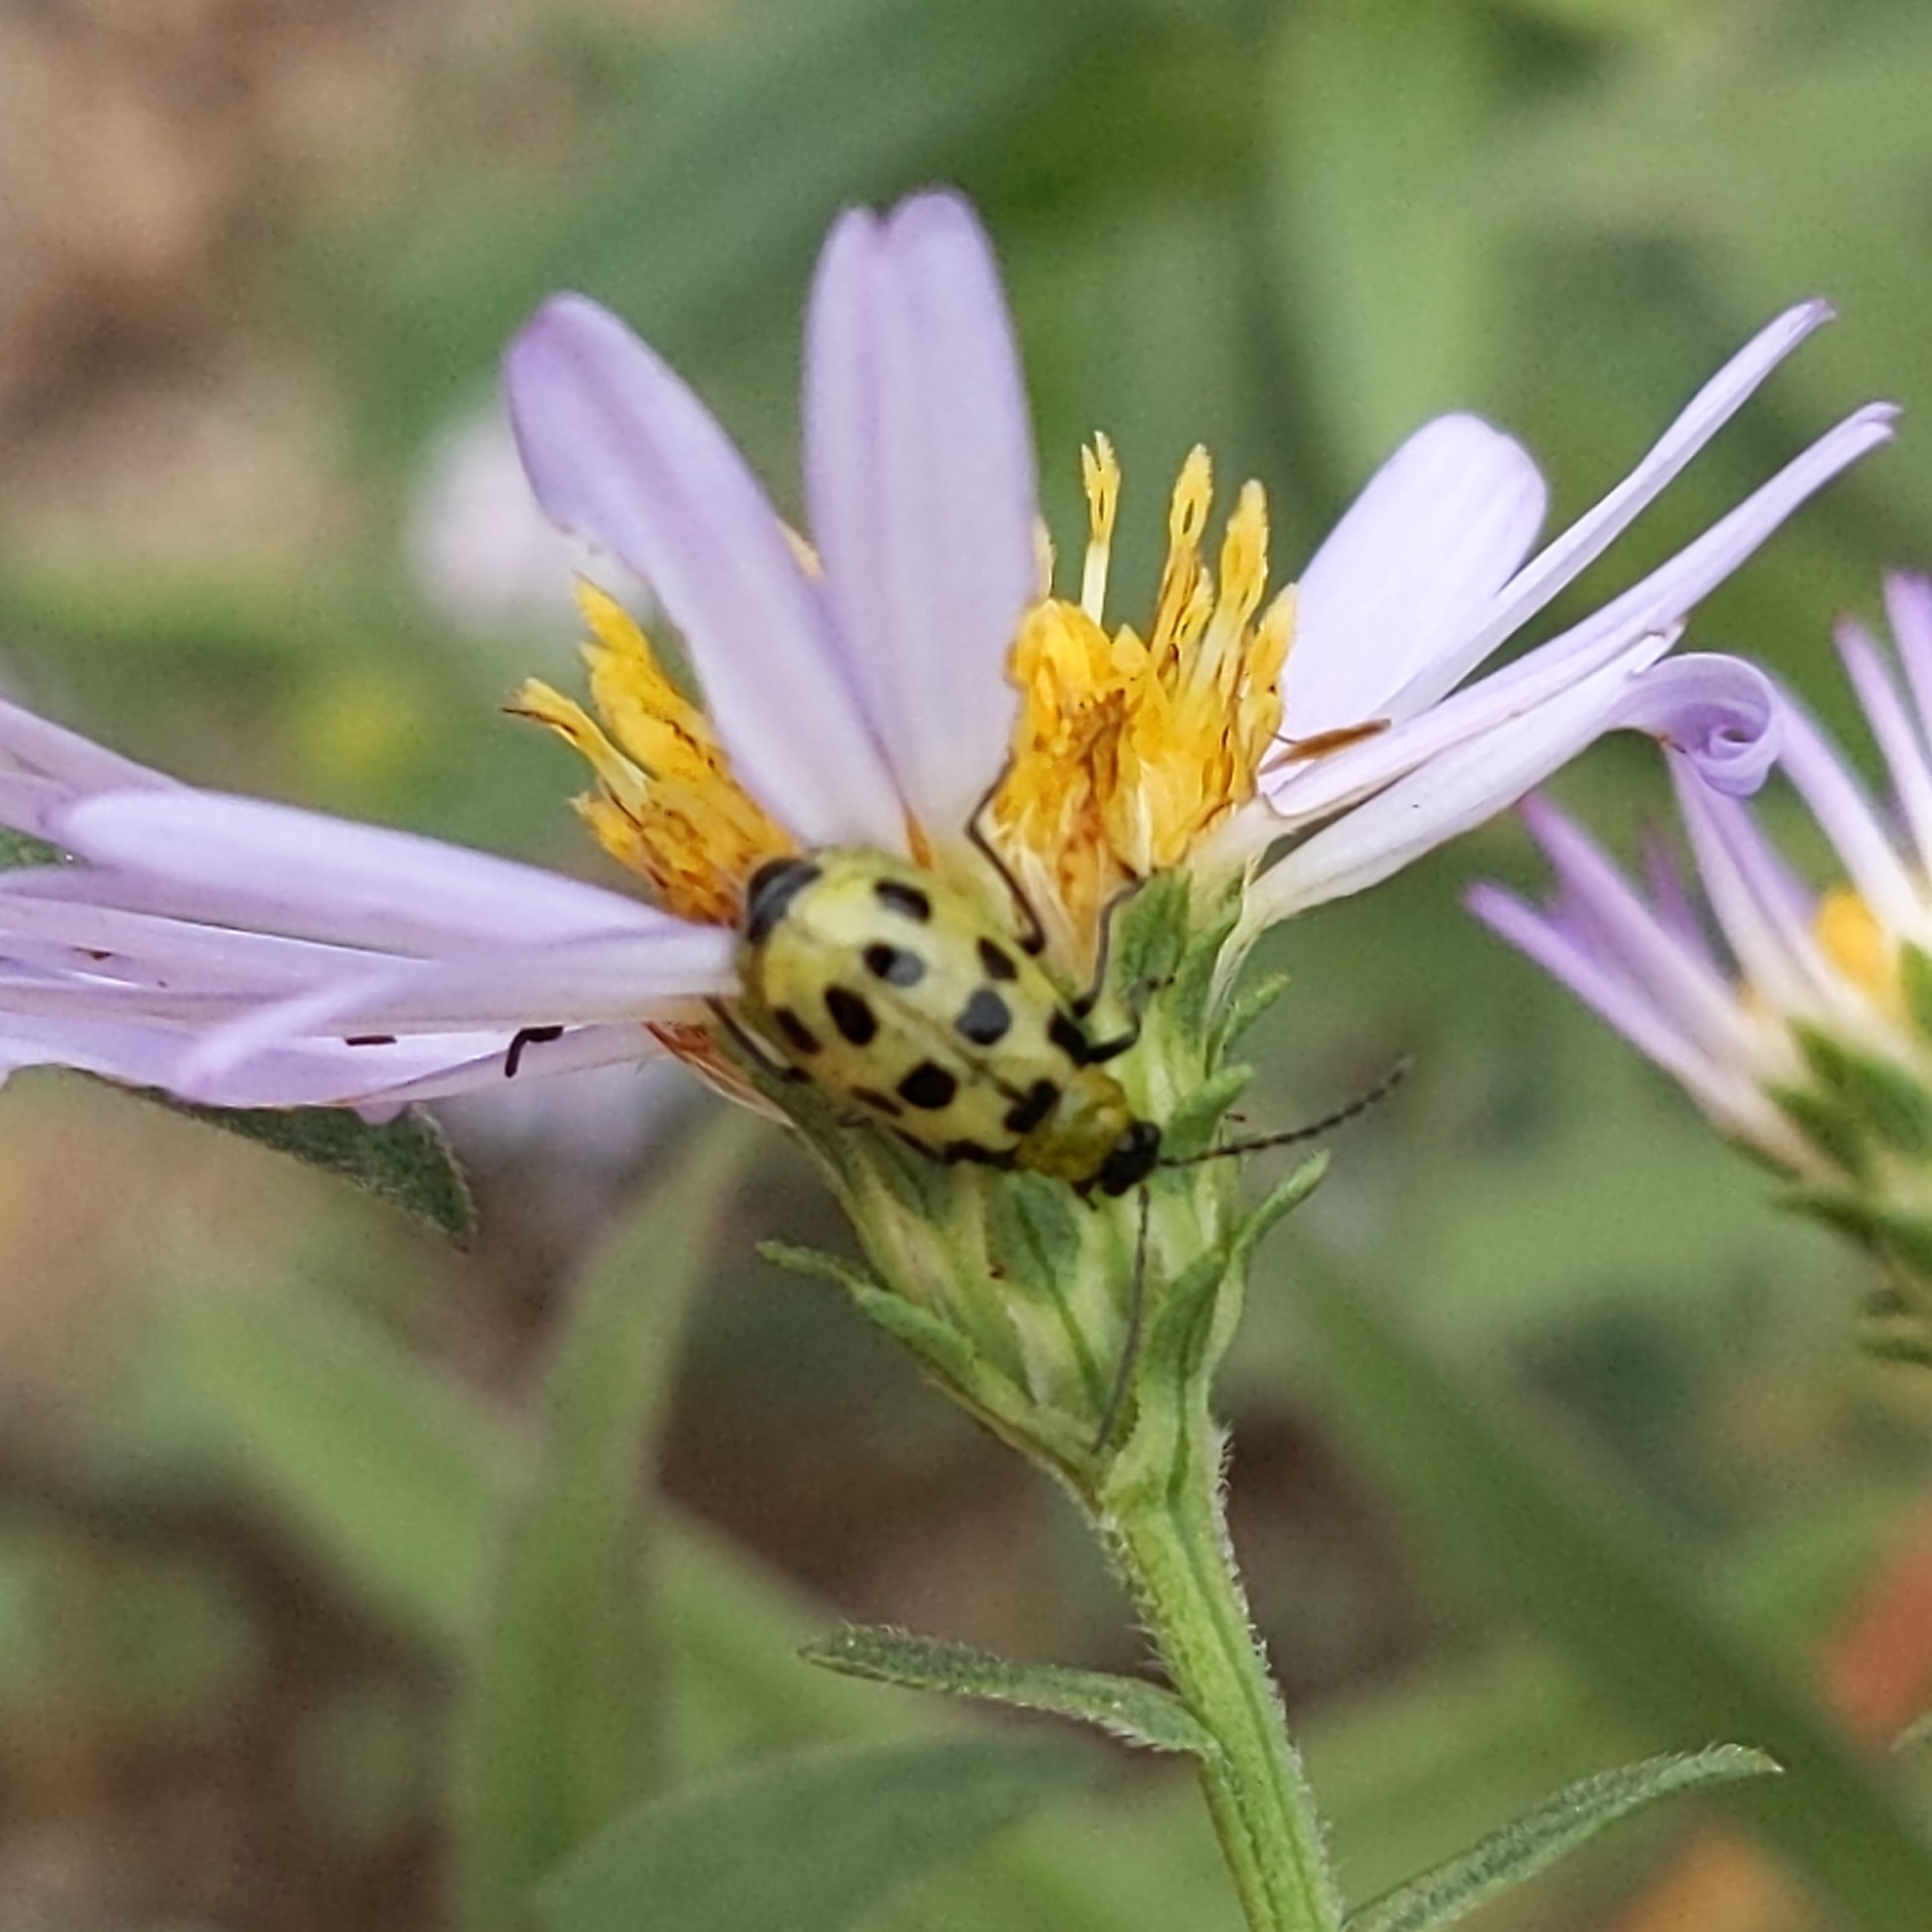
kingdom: Animalia
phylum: Arthropoda
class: Insecta
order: Coleoptera
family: Chrysomelidae
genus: Diabrotica
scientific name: Diabrotica undecimpunctata
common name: Spotted cucumber beetle
